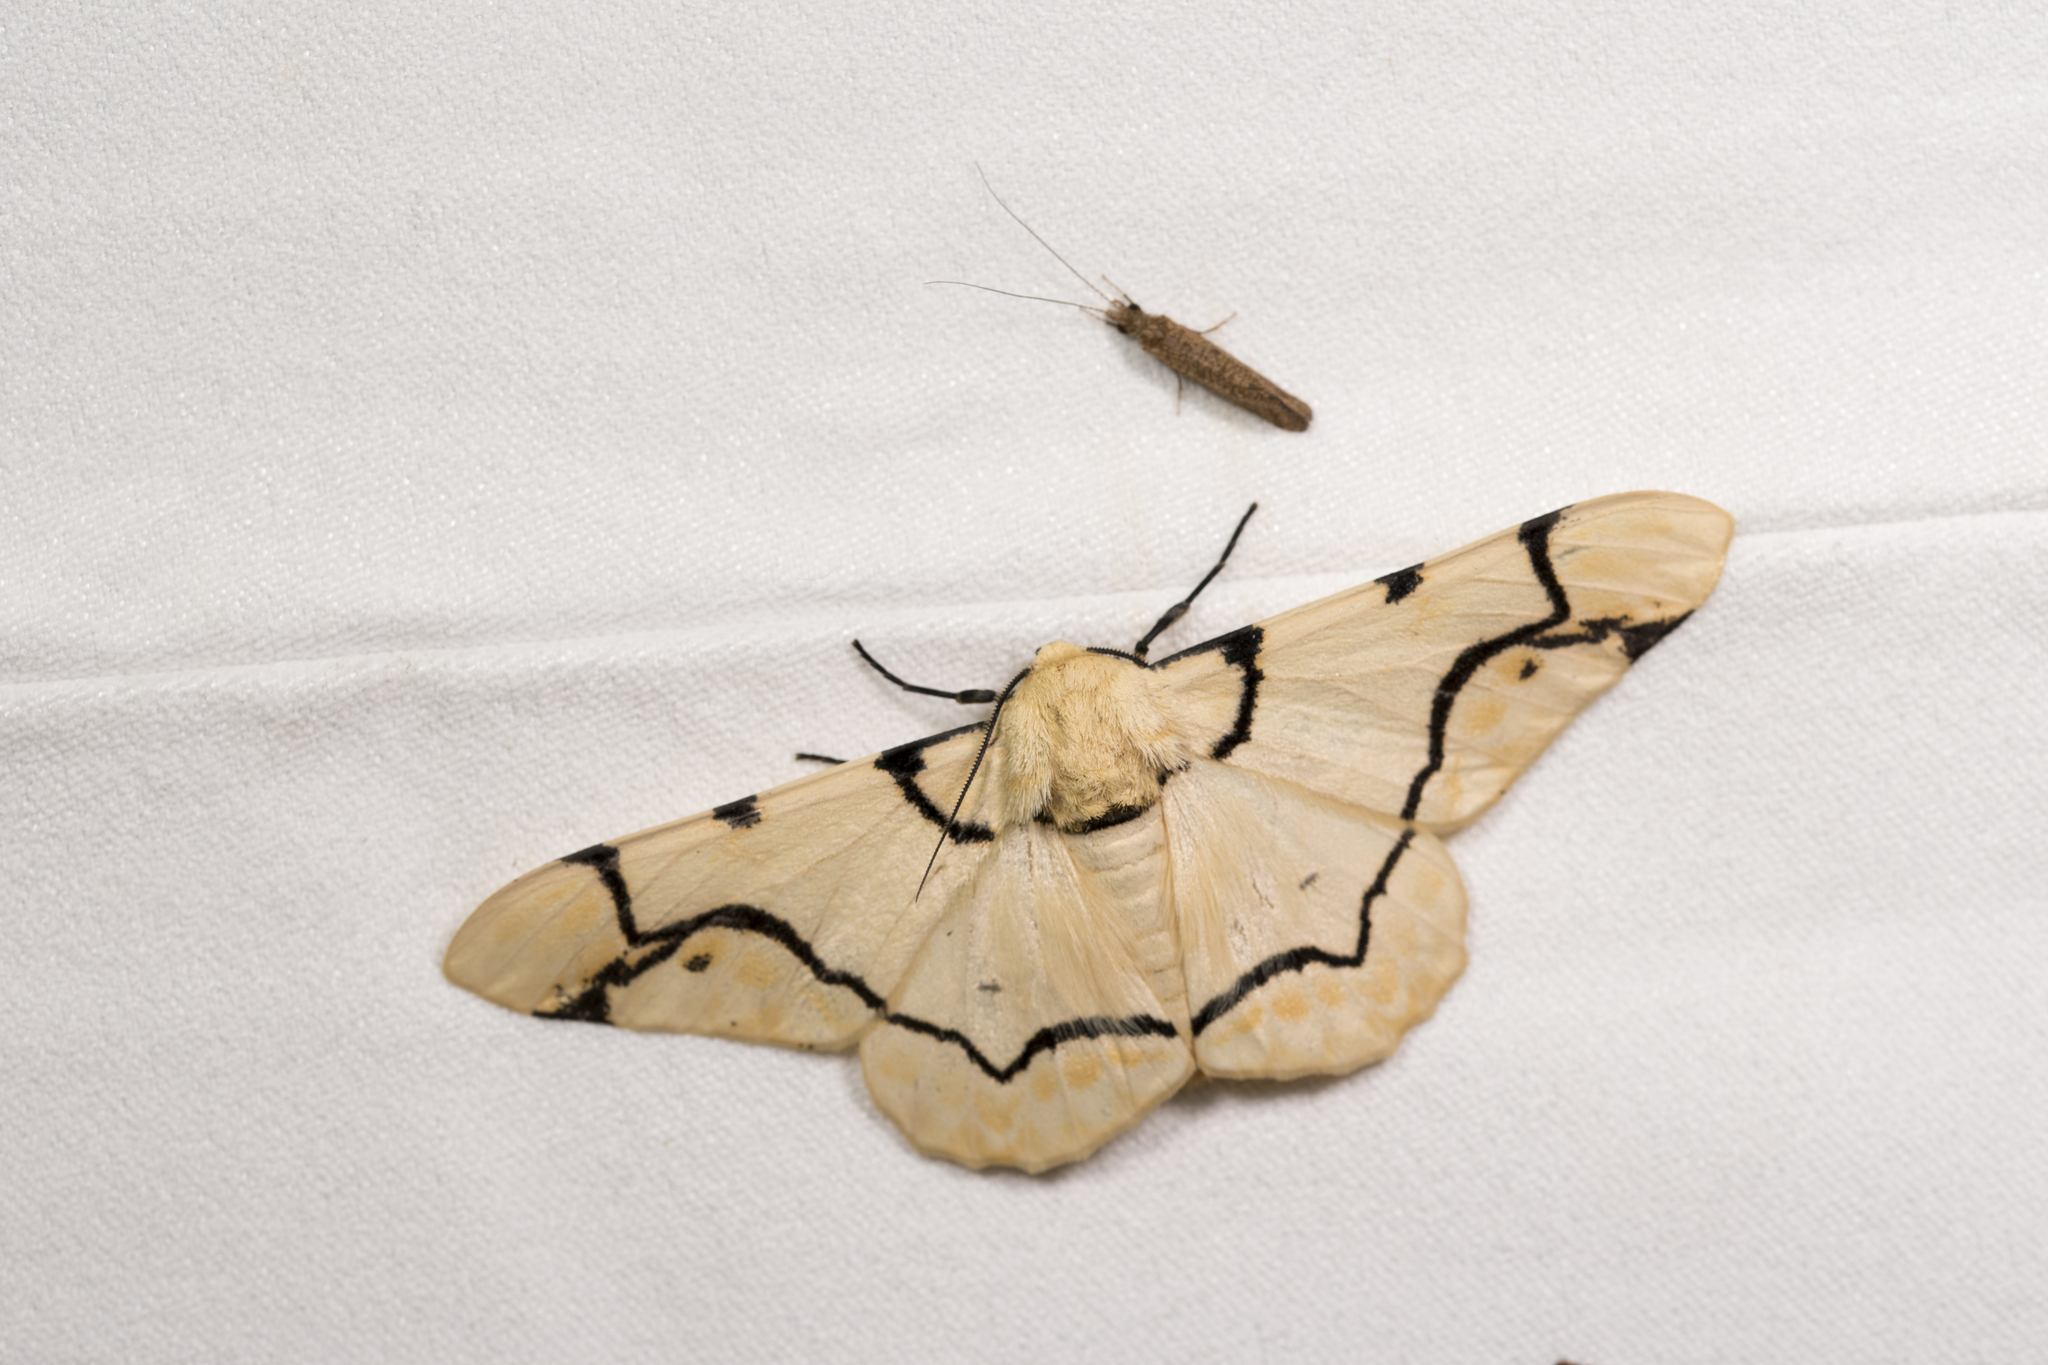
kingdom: Animalia
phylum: Arthropoda
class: Insecta
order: Lepidoptera
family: Geometridae
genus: Biston
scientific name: Biston perclara
